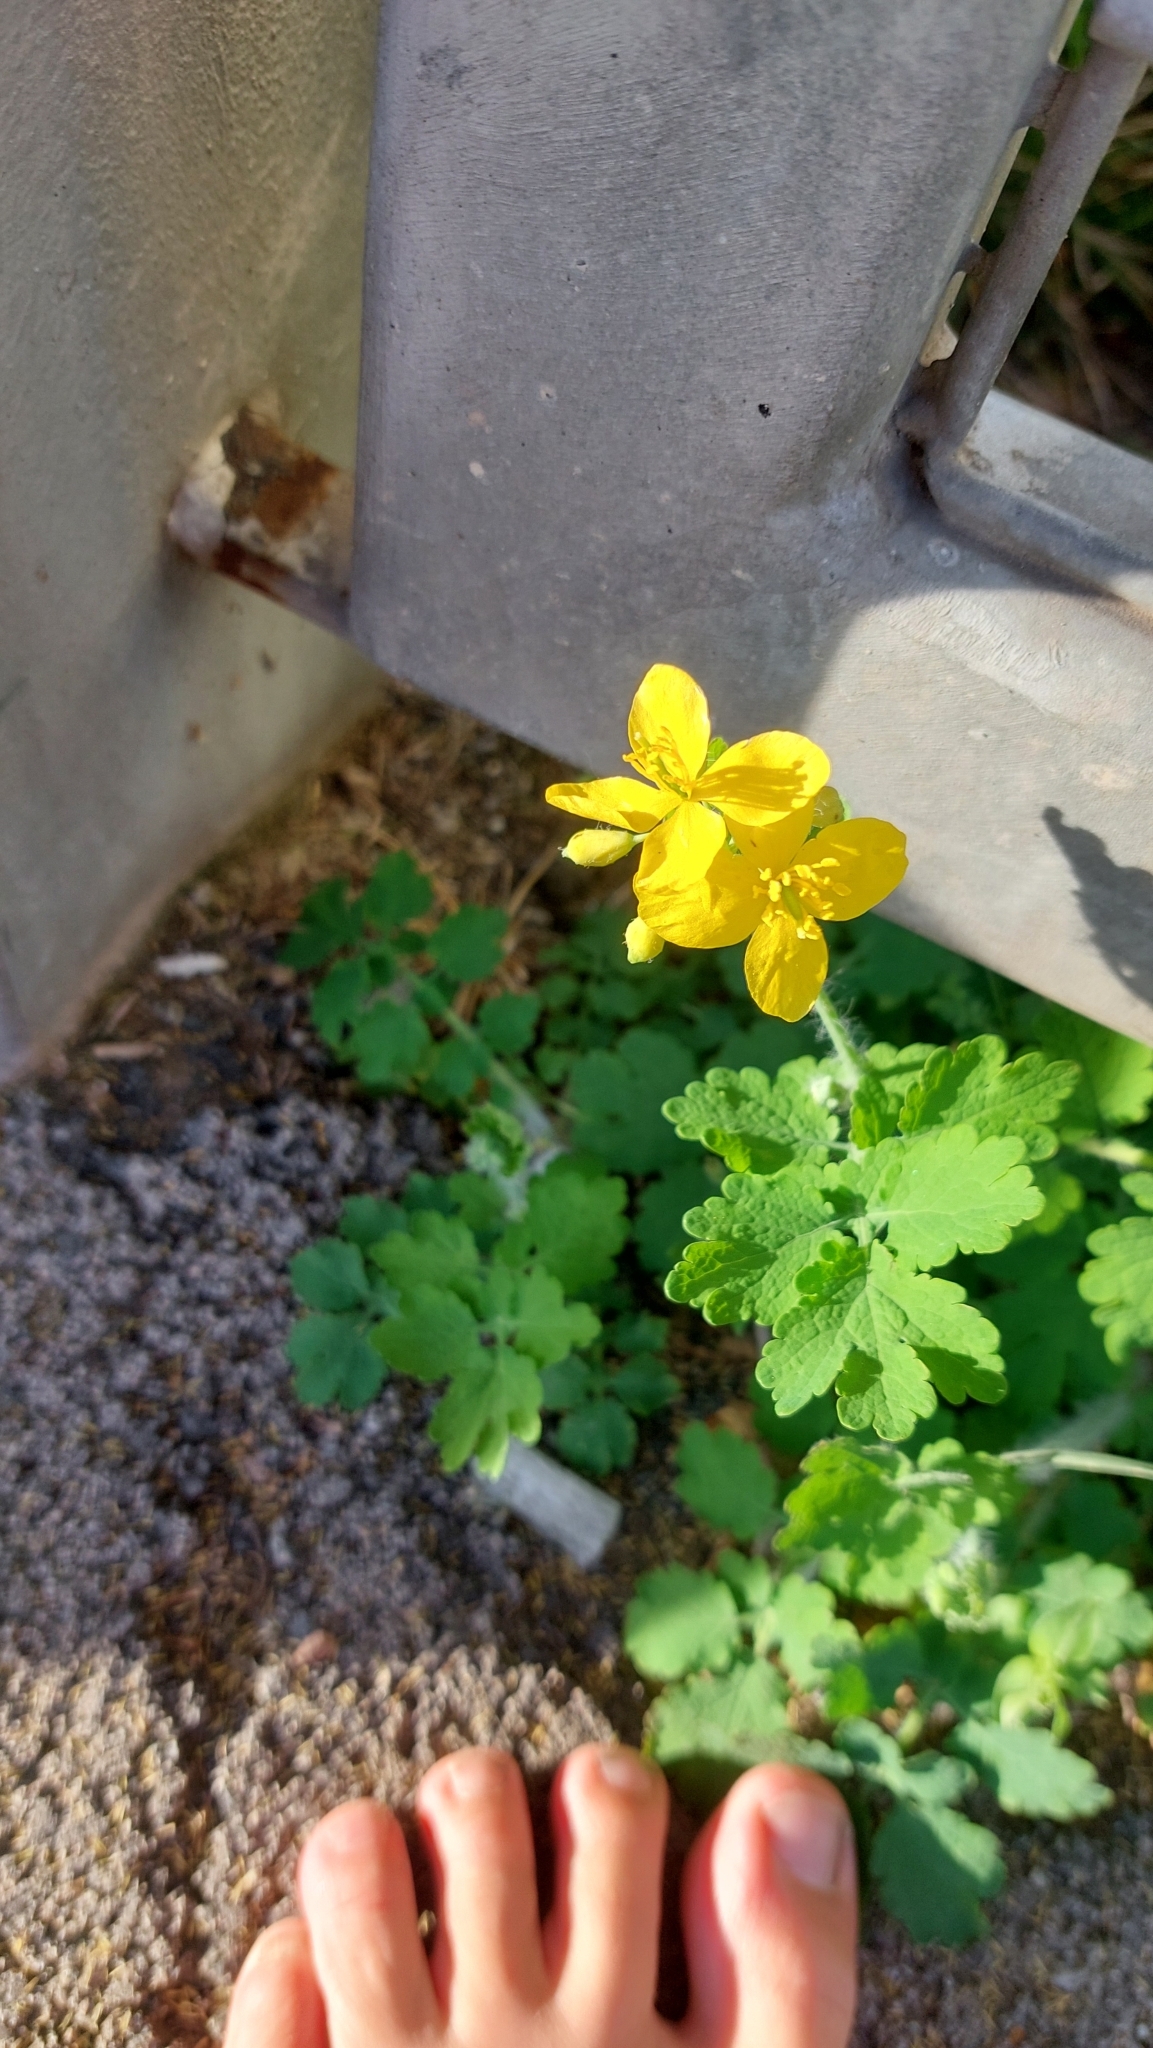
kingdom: Plantae
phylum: Tracheophyta
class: Magnoliopsida
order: Ranunculales
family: Papaveraceae
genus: Chelidonium
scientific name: Chelidonium majus
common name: Greater celandine
